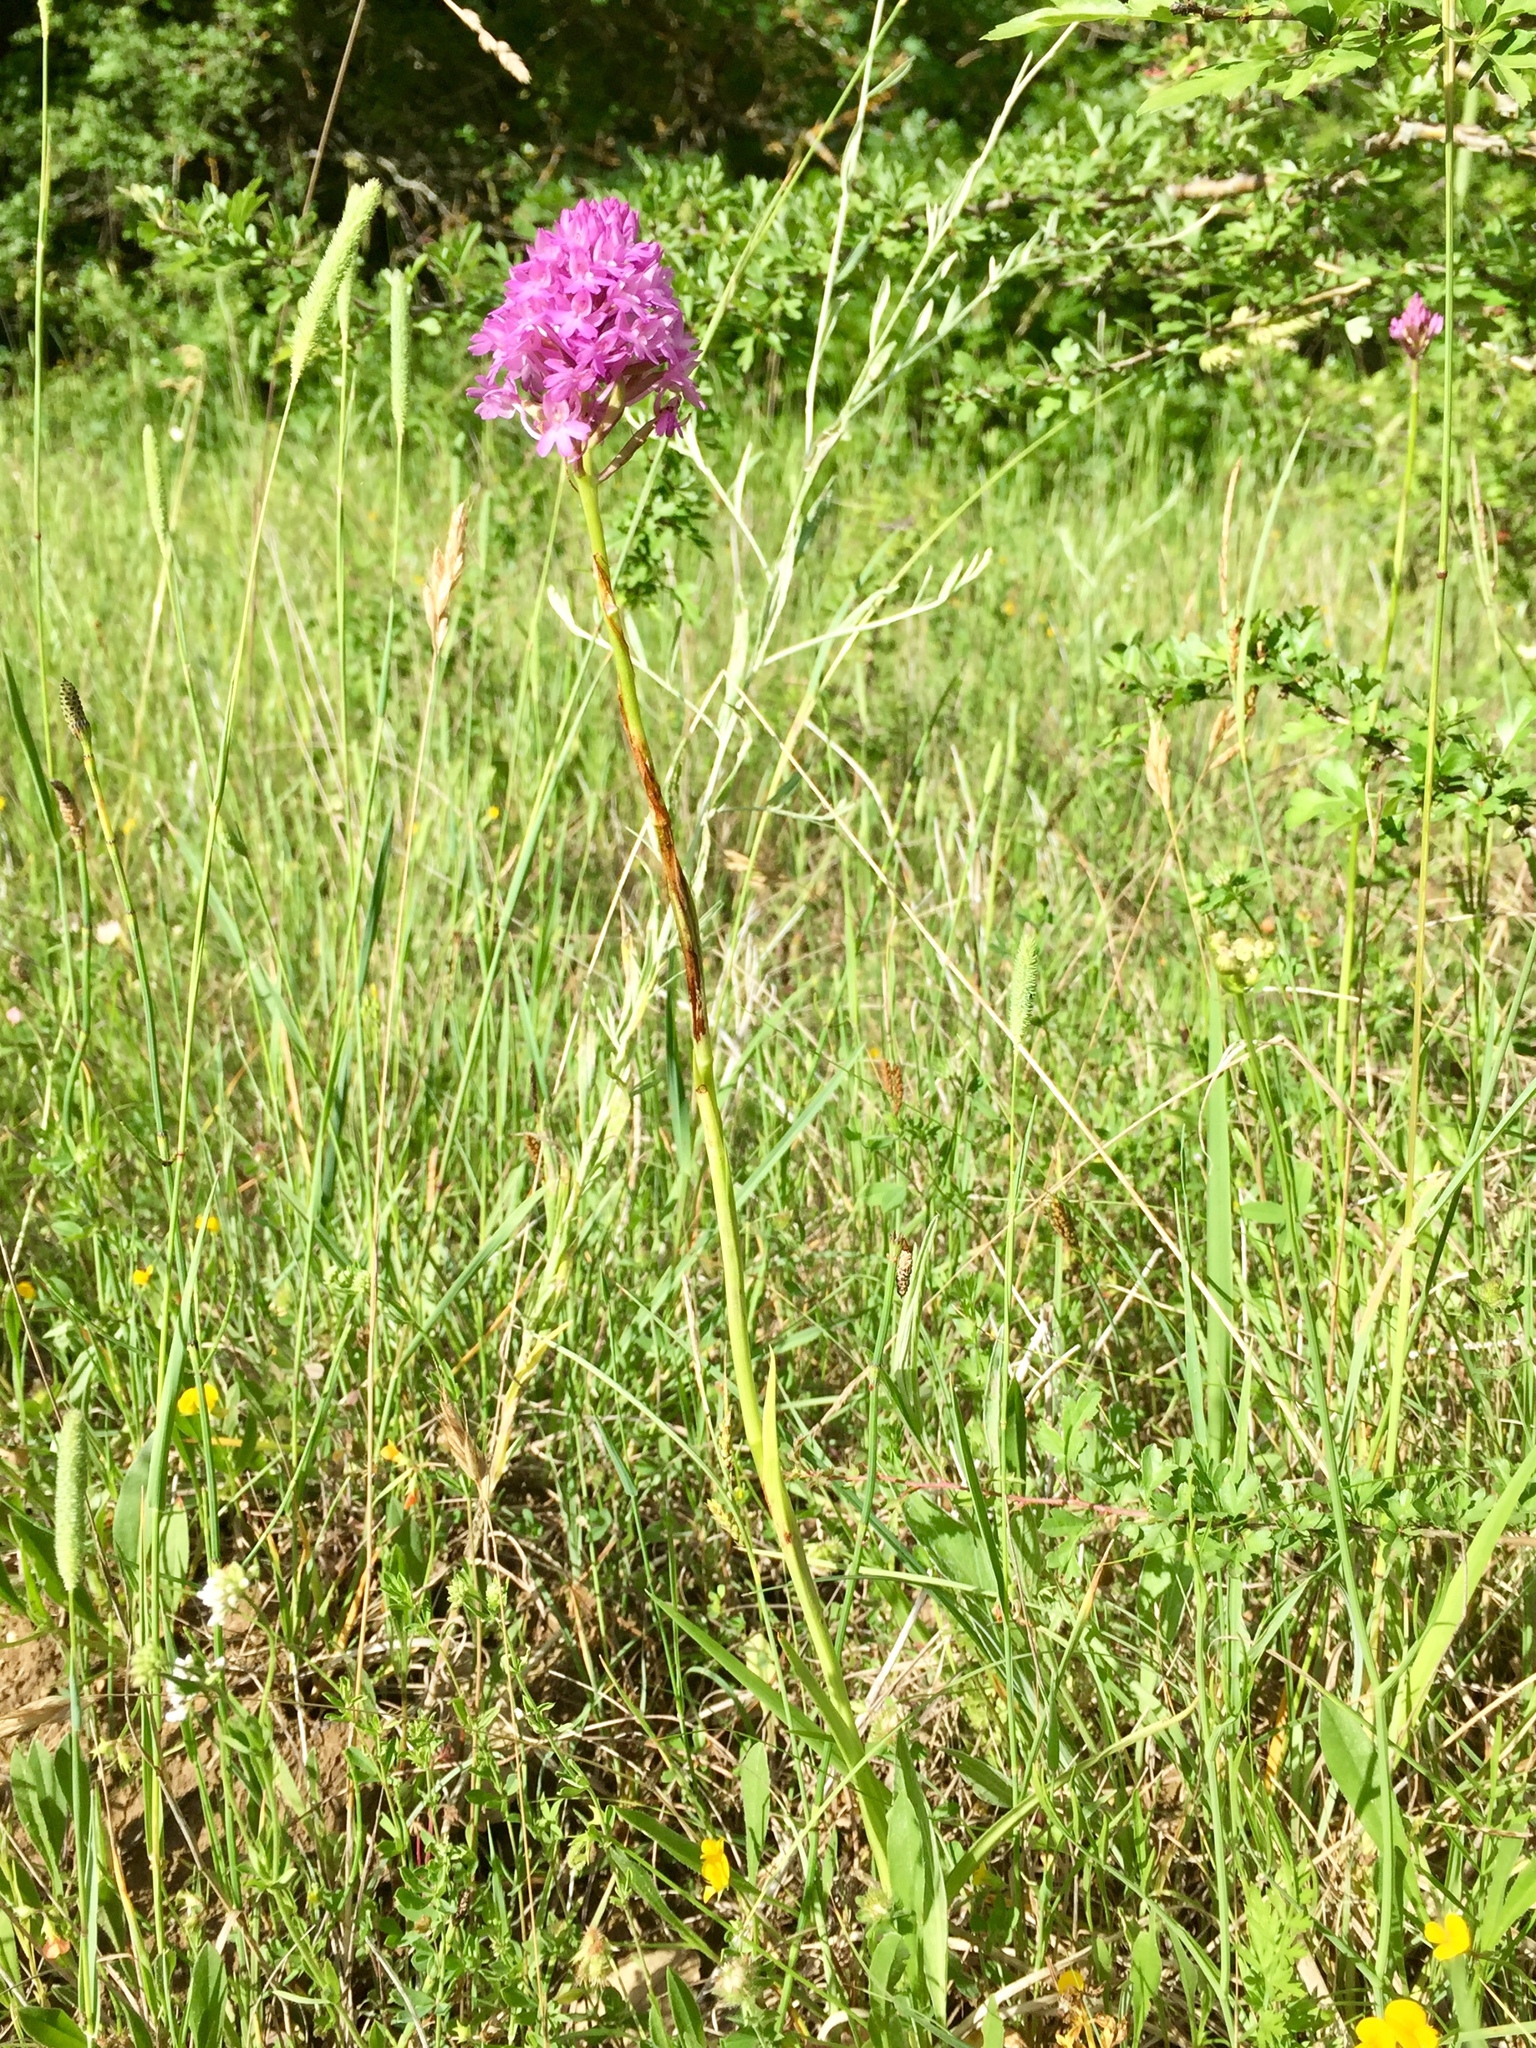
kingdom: Plantae
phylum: Tracheophyta
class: Liliopsida
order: Asparagales
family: Orchidaceae
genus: Anacamptis
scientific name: Anacamptis pyramidalis
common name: Pyramidal orchid
